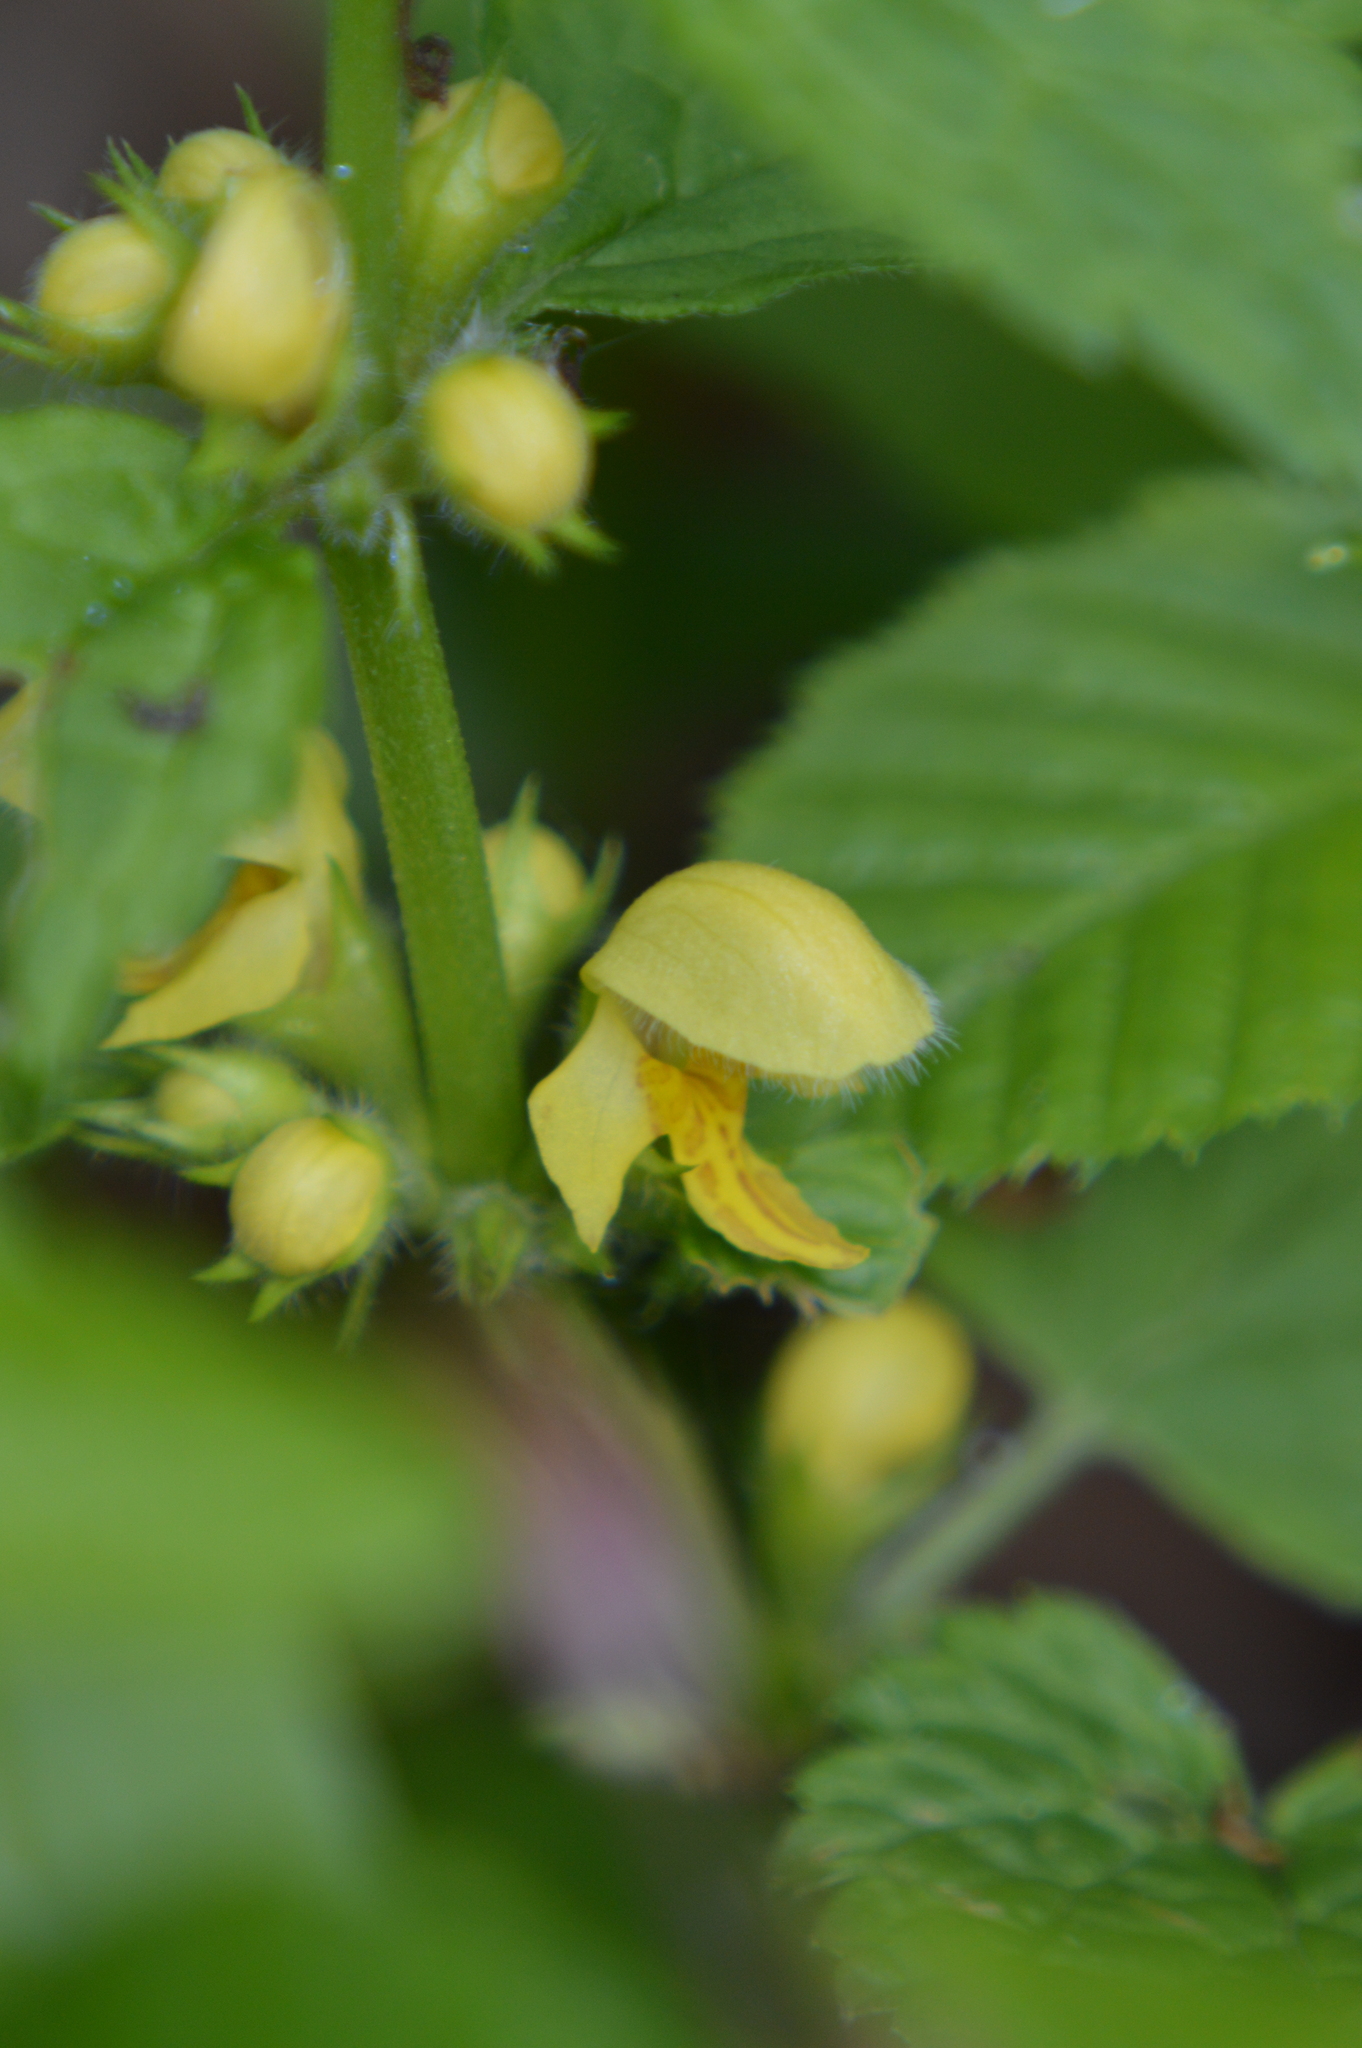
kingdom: Plantae
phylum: Tracheophyta
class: Magnoliopsida
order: Lamiales
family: Lamiaceae
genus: Lamium
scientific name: Lamium galeobdolon
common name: Yellow archangel
